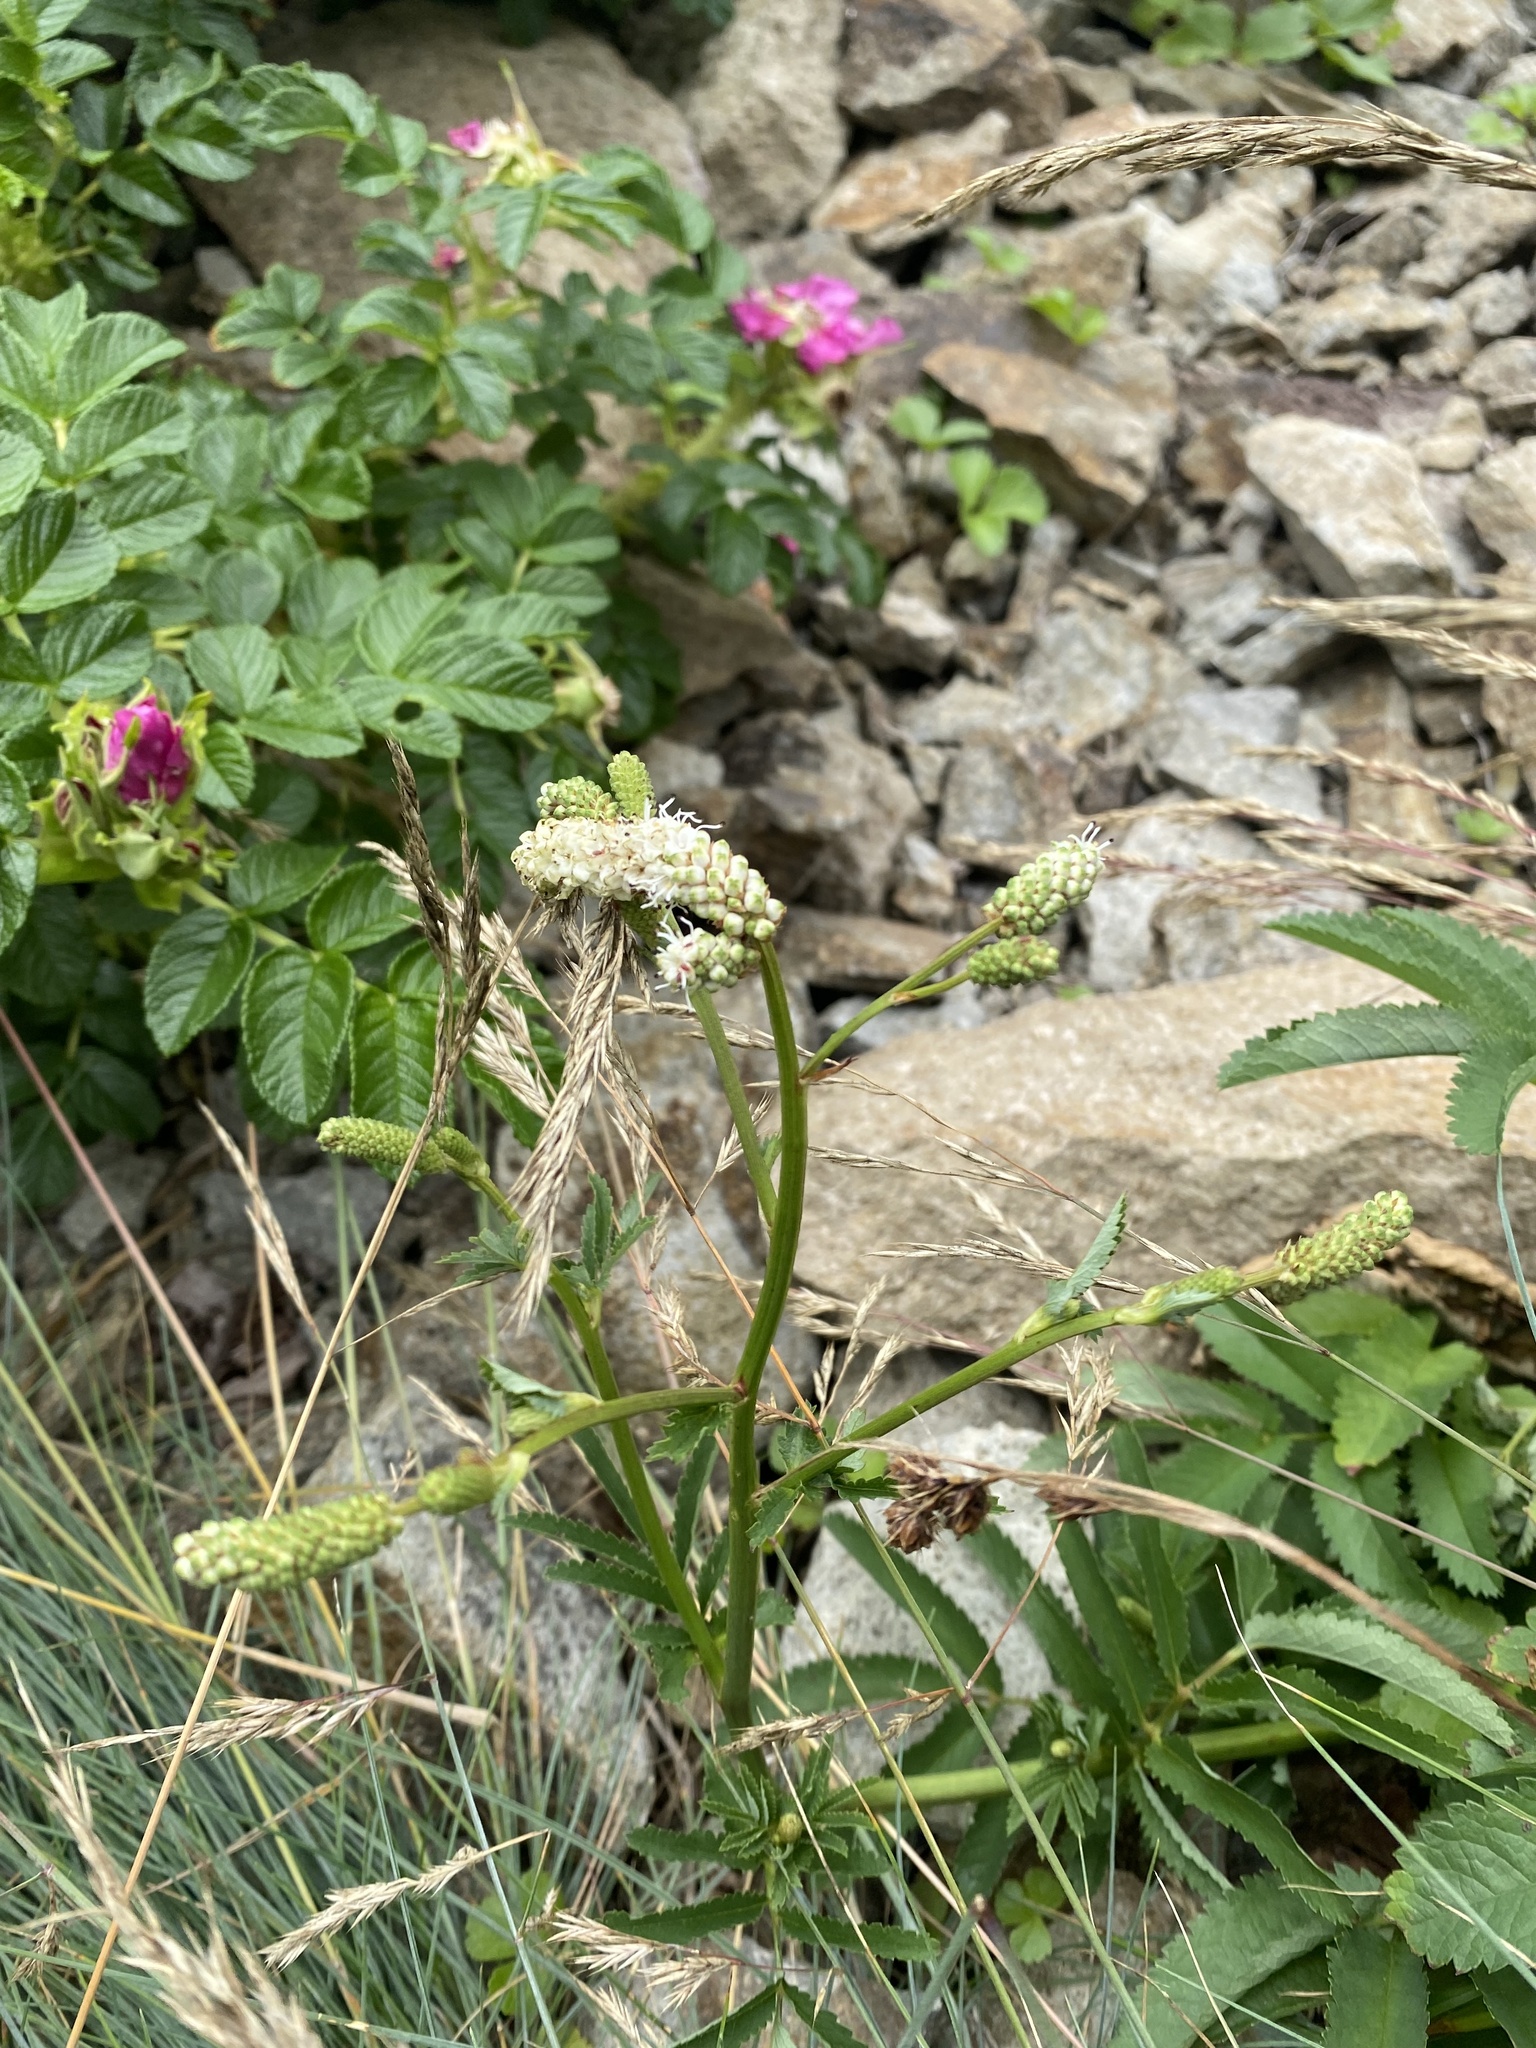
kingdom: Plantae
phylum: Tracheophyta
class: Magnoliopsida
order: Rosales
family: Rosaceae
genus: Poterium
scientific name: Poterium tenuifolium
